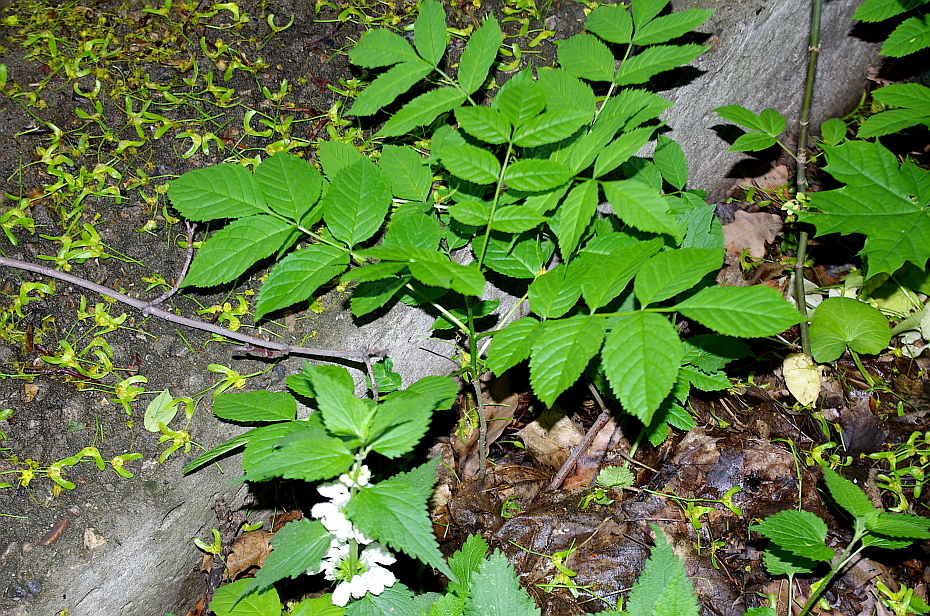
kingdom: Plantae
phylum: Tracheophyta
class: Magnoliopsida
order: Lamiales
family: Oleaceae
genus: Fraxinus
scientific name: Fraxinus pennsylvanica
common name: Green ash
